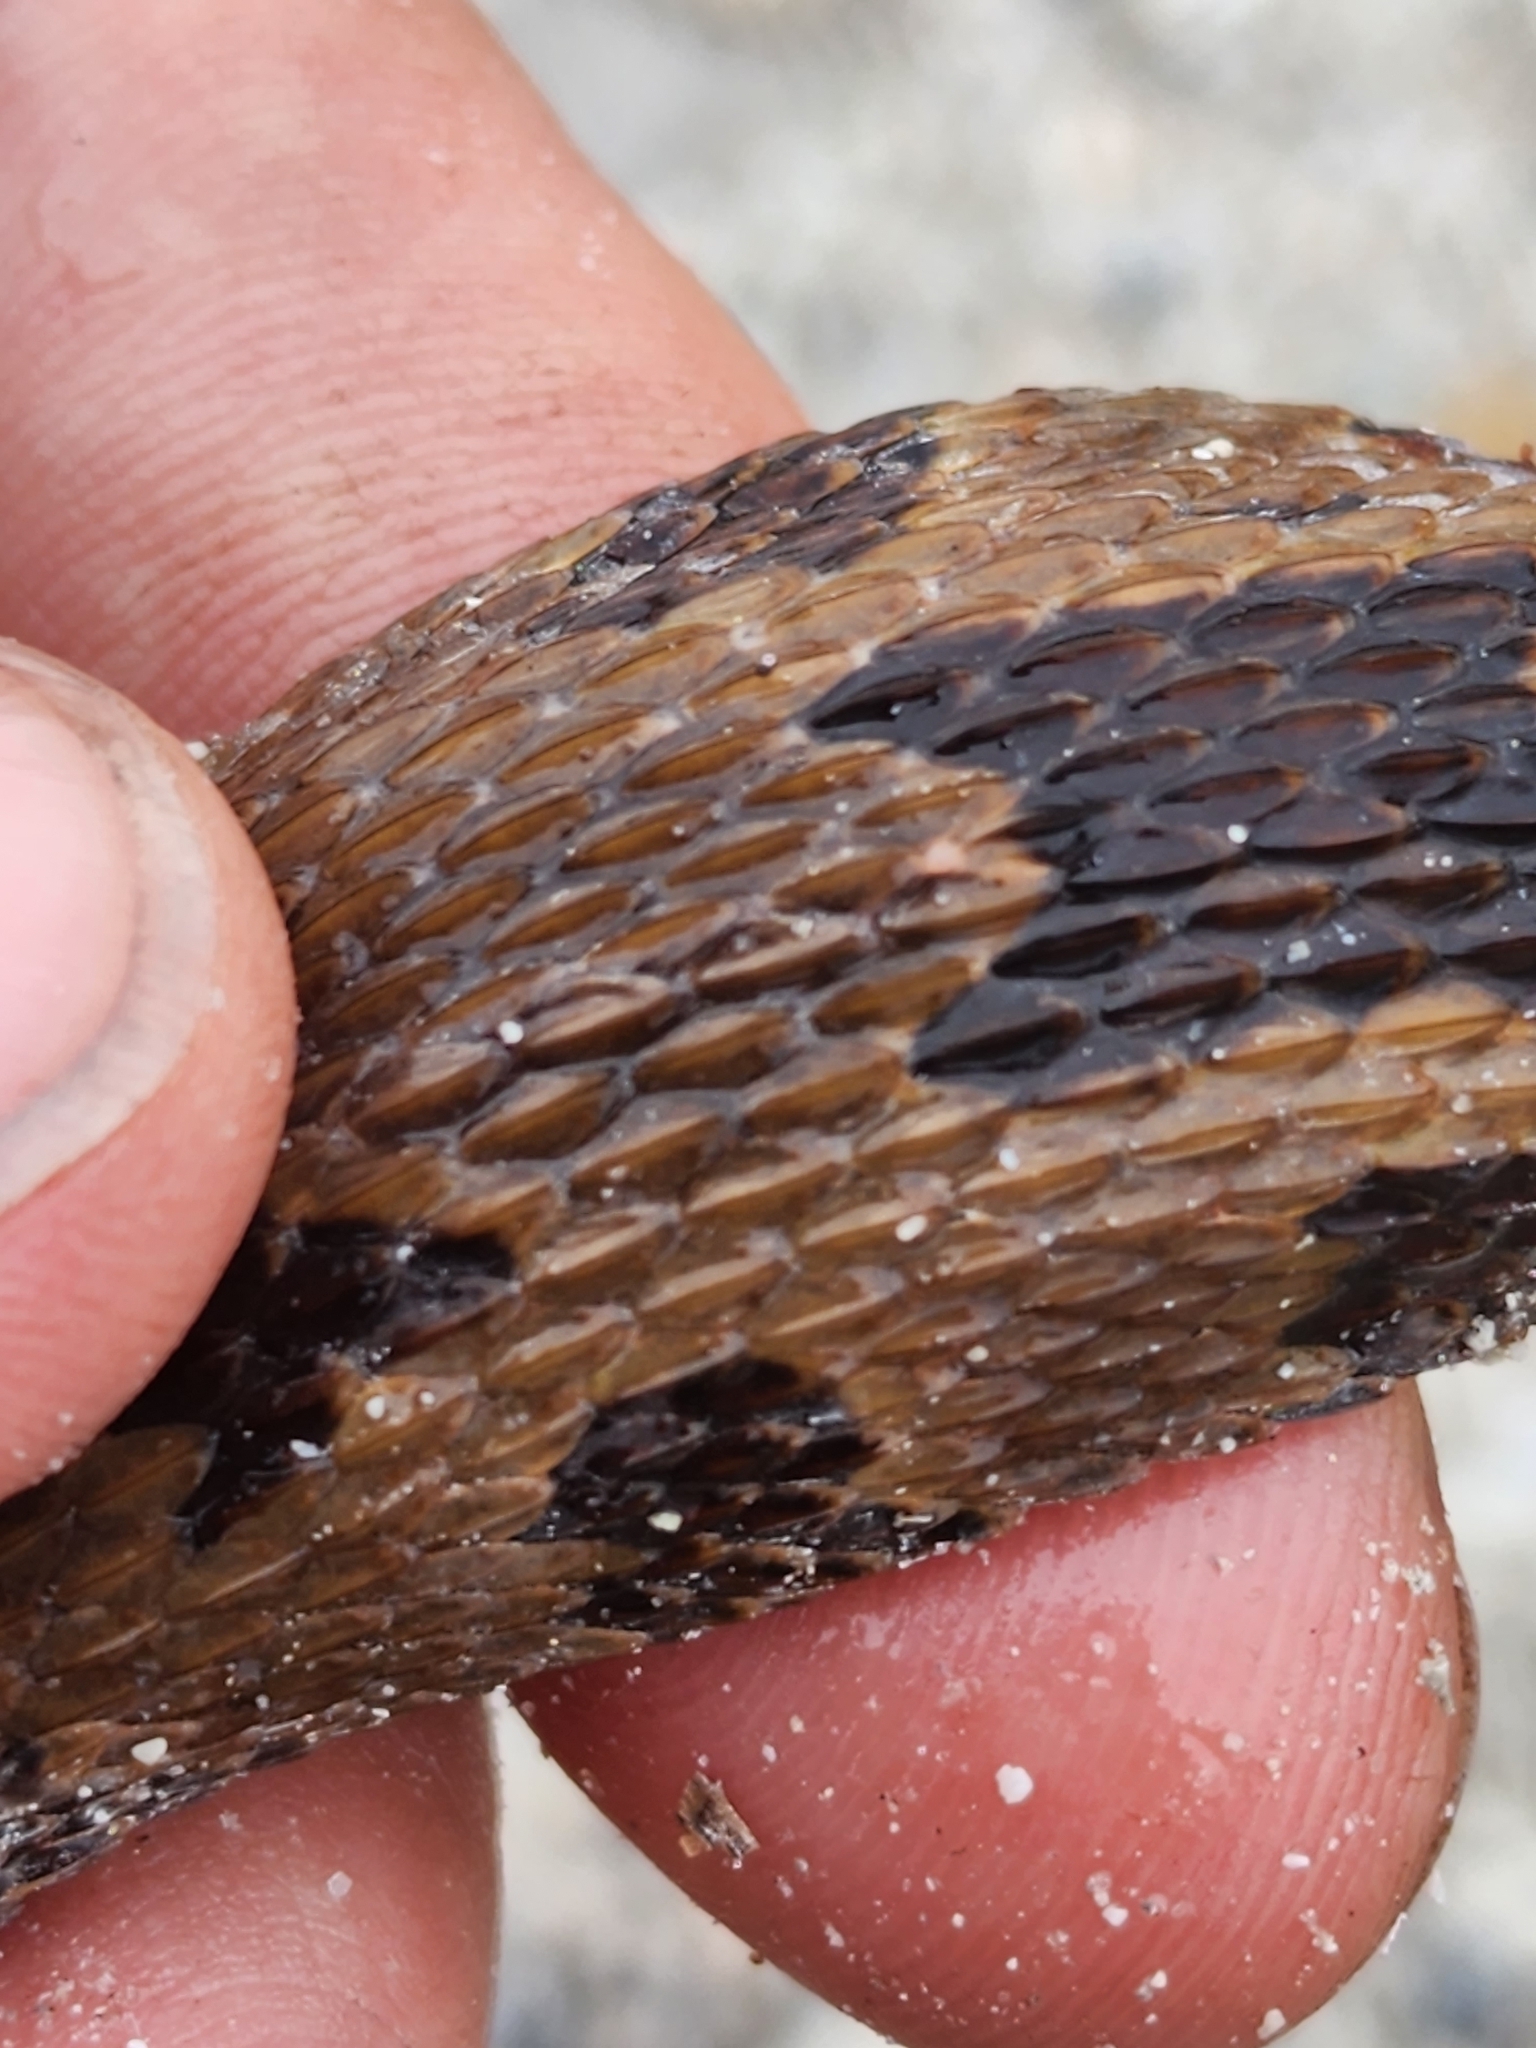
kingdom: Animalia
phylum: Chordata
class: Squamata
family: Colubridae
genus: Nerodia
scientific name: Nerodia taxispilota
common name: Brown water snake
